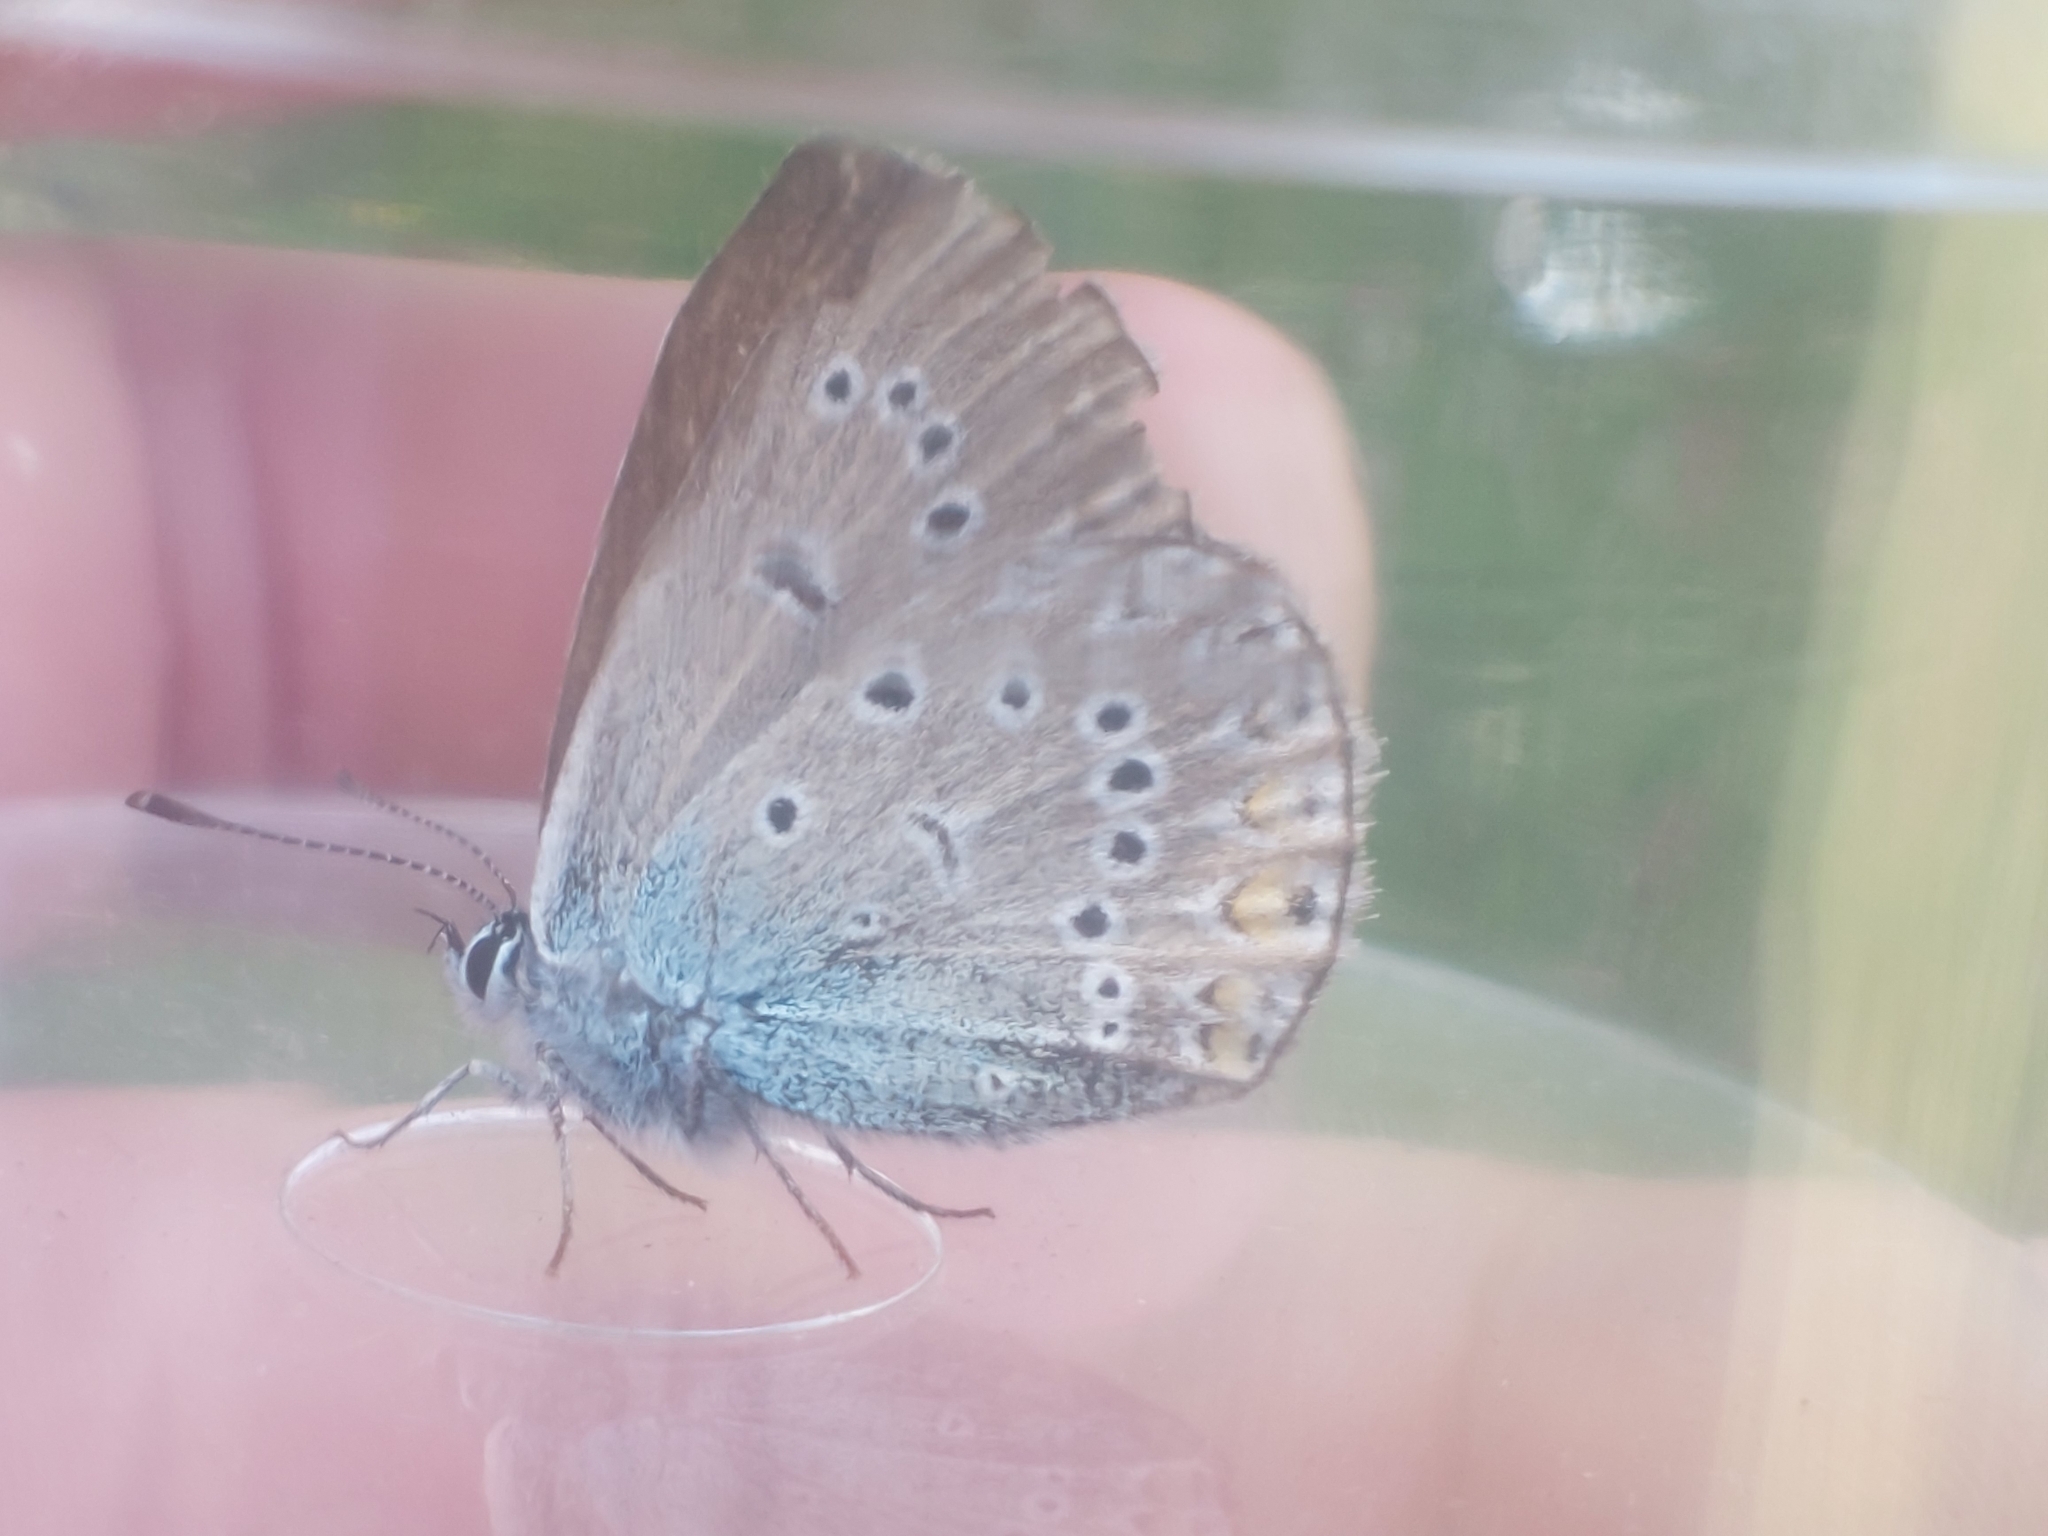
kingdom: Animalia
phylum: Arthropoda
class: Insecta
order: Lepidoptera
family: Lycaenidae
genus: Plebejus
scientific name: Plebejus amanda
